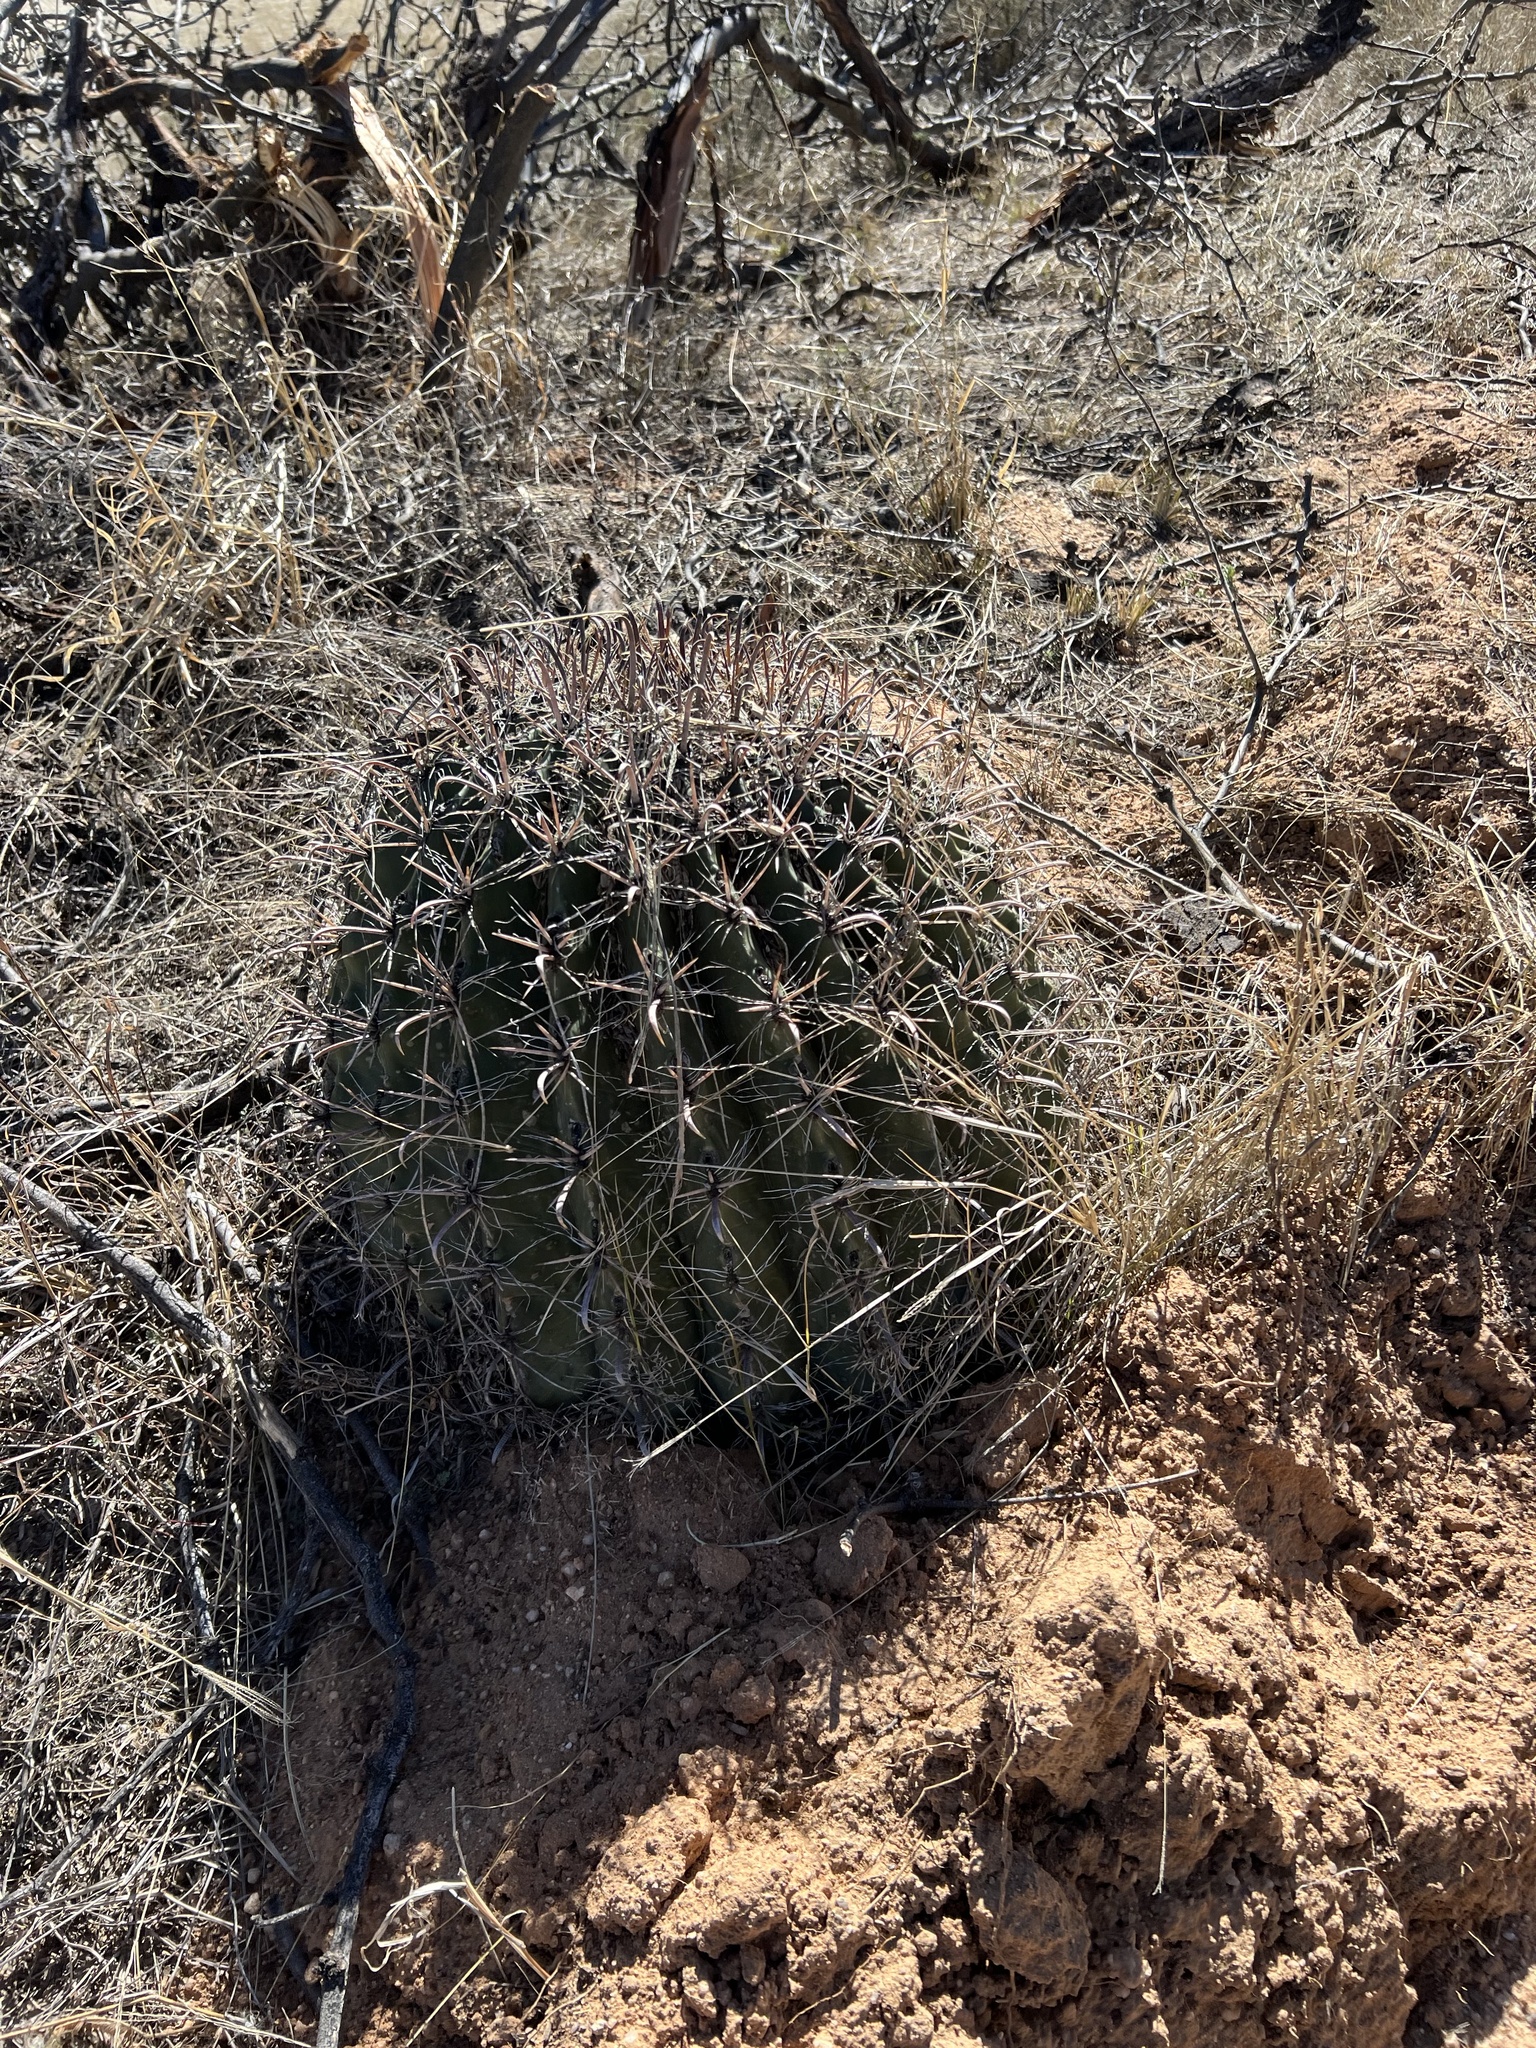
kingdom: Plantae
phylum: Tracheophyta
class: Magnoliopsida
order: Caryophyllales
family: Cactaceae
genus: Ferocactus
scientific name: Ferocactus wislizeni
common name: Candy barrel cactus
